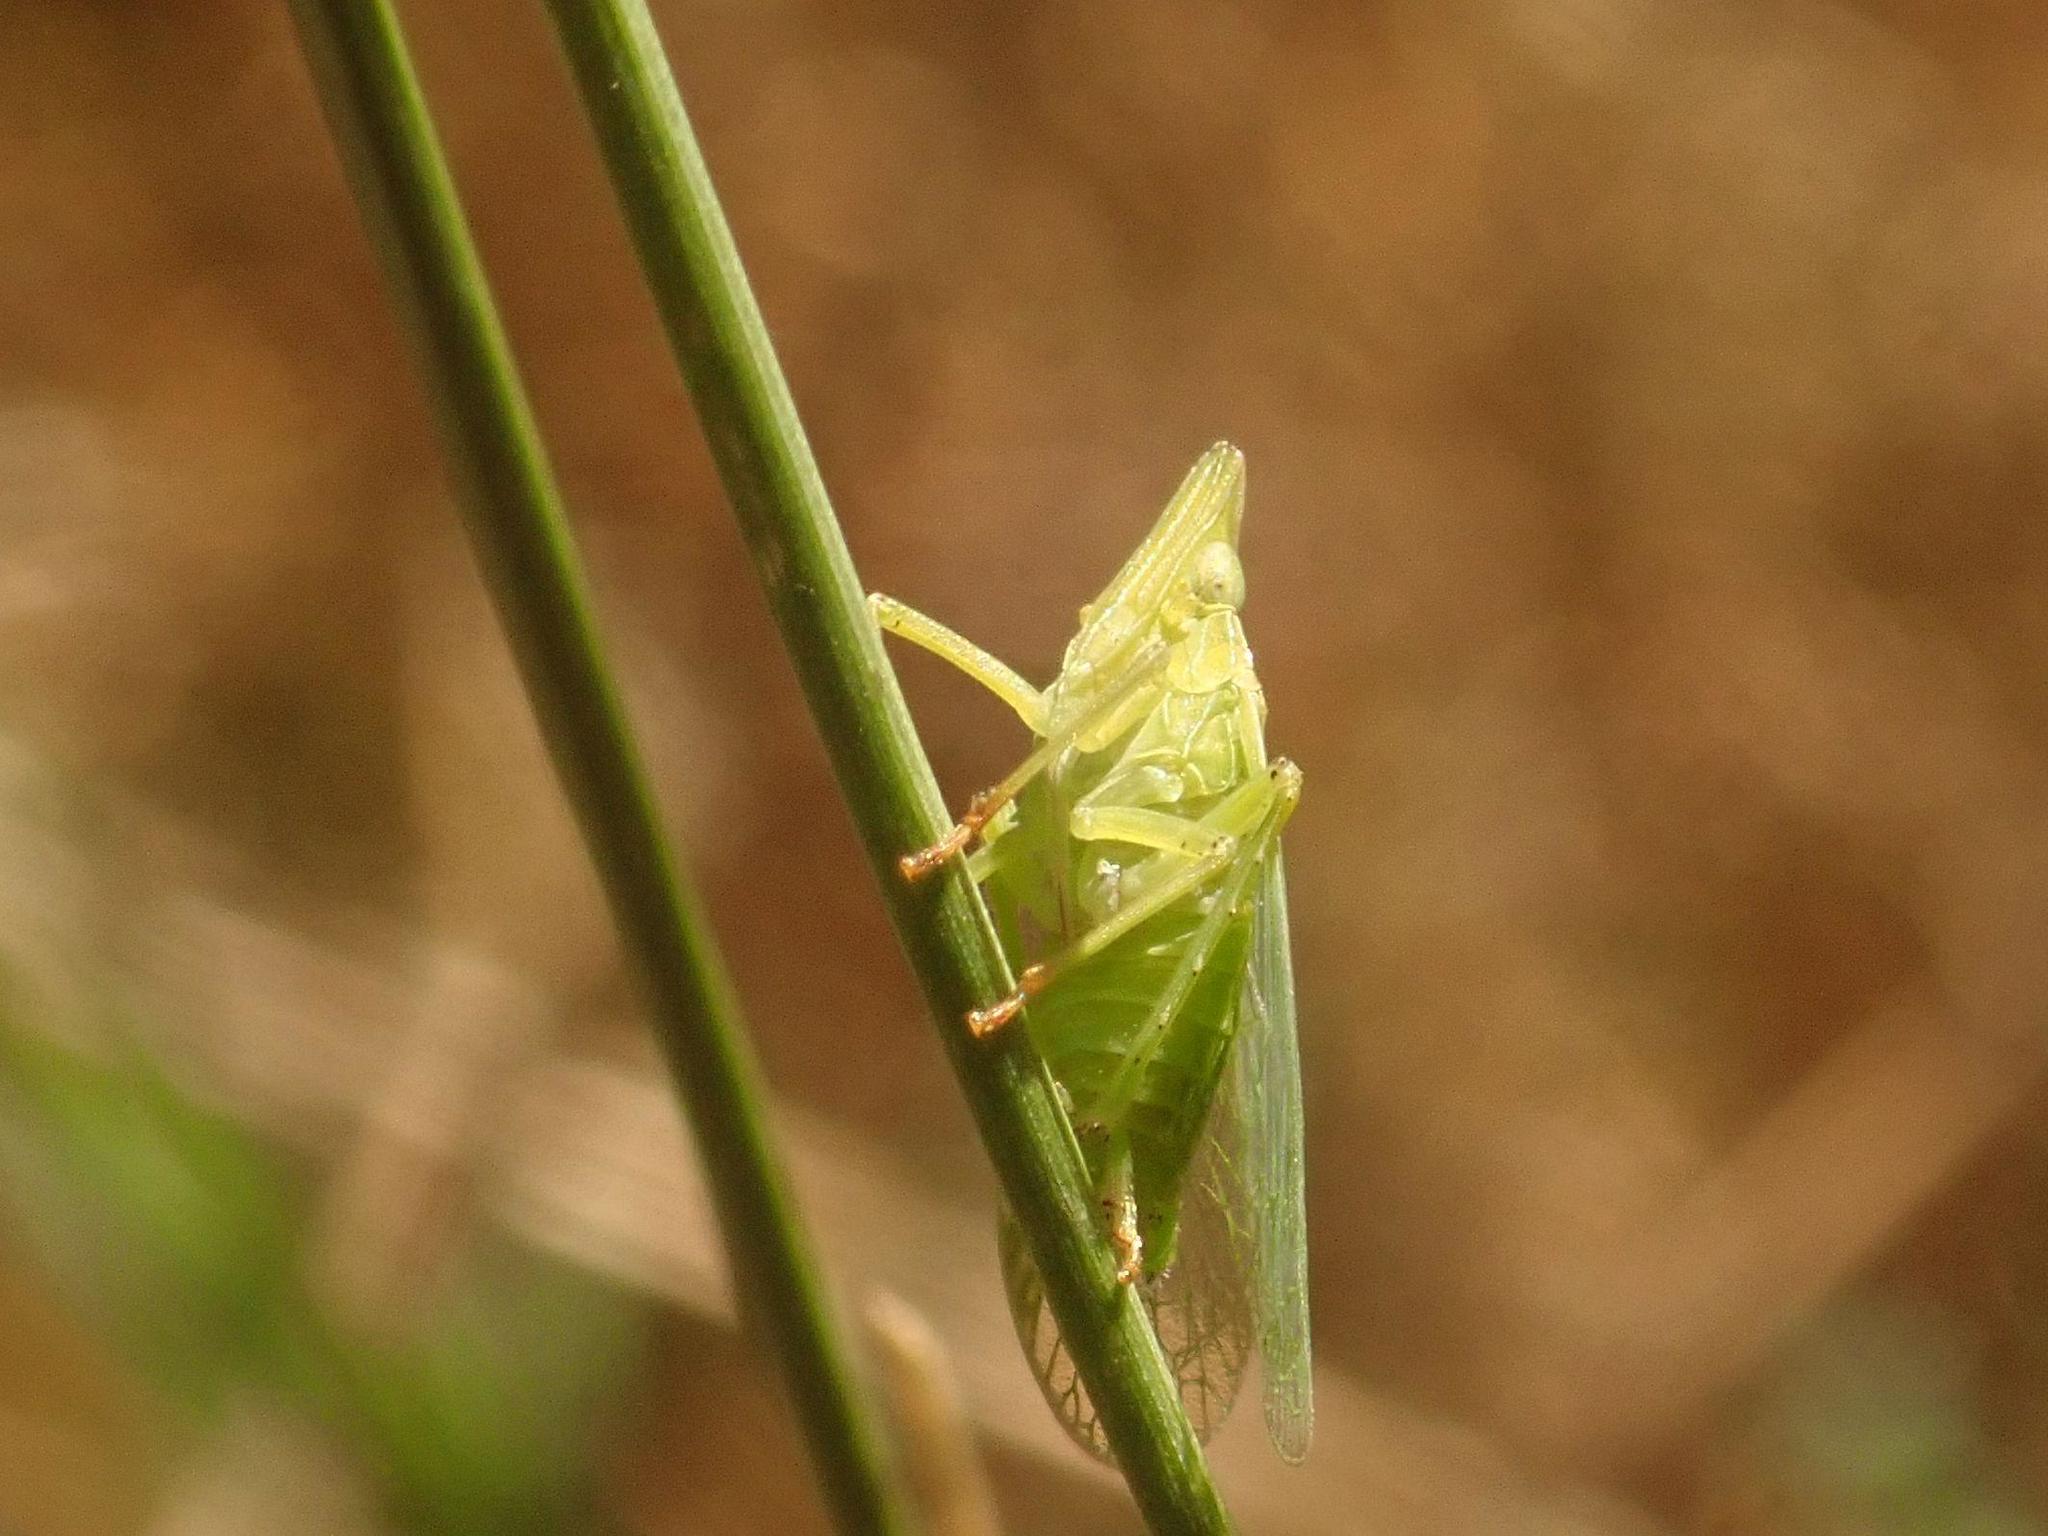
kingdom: Animalia
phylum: Arthropoda
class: Insecta
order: Hemiptera
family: Dictyopharidae
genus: Dictyophara
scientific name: Dictyophara europaea
